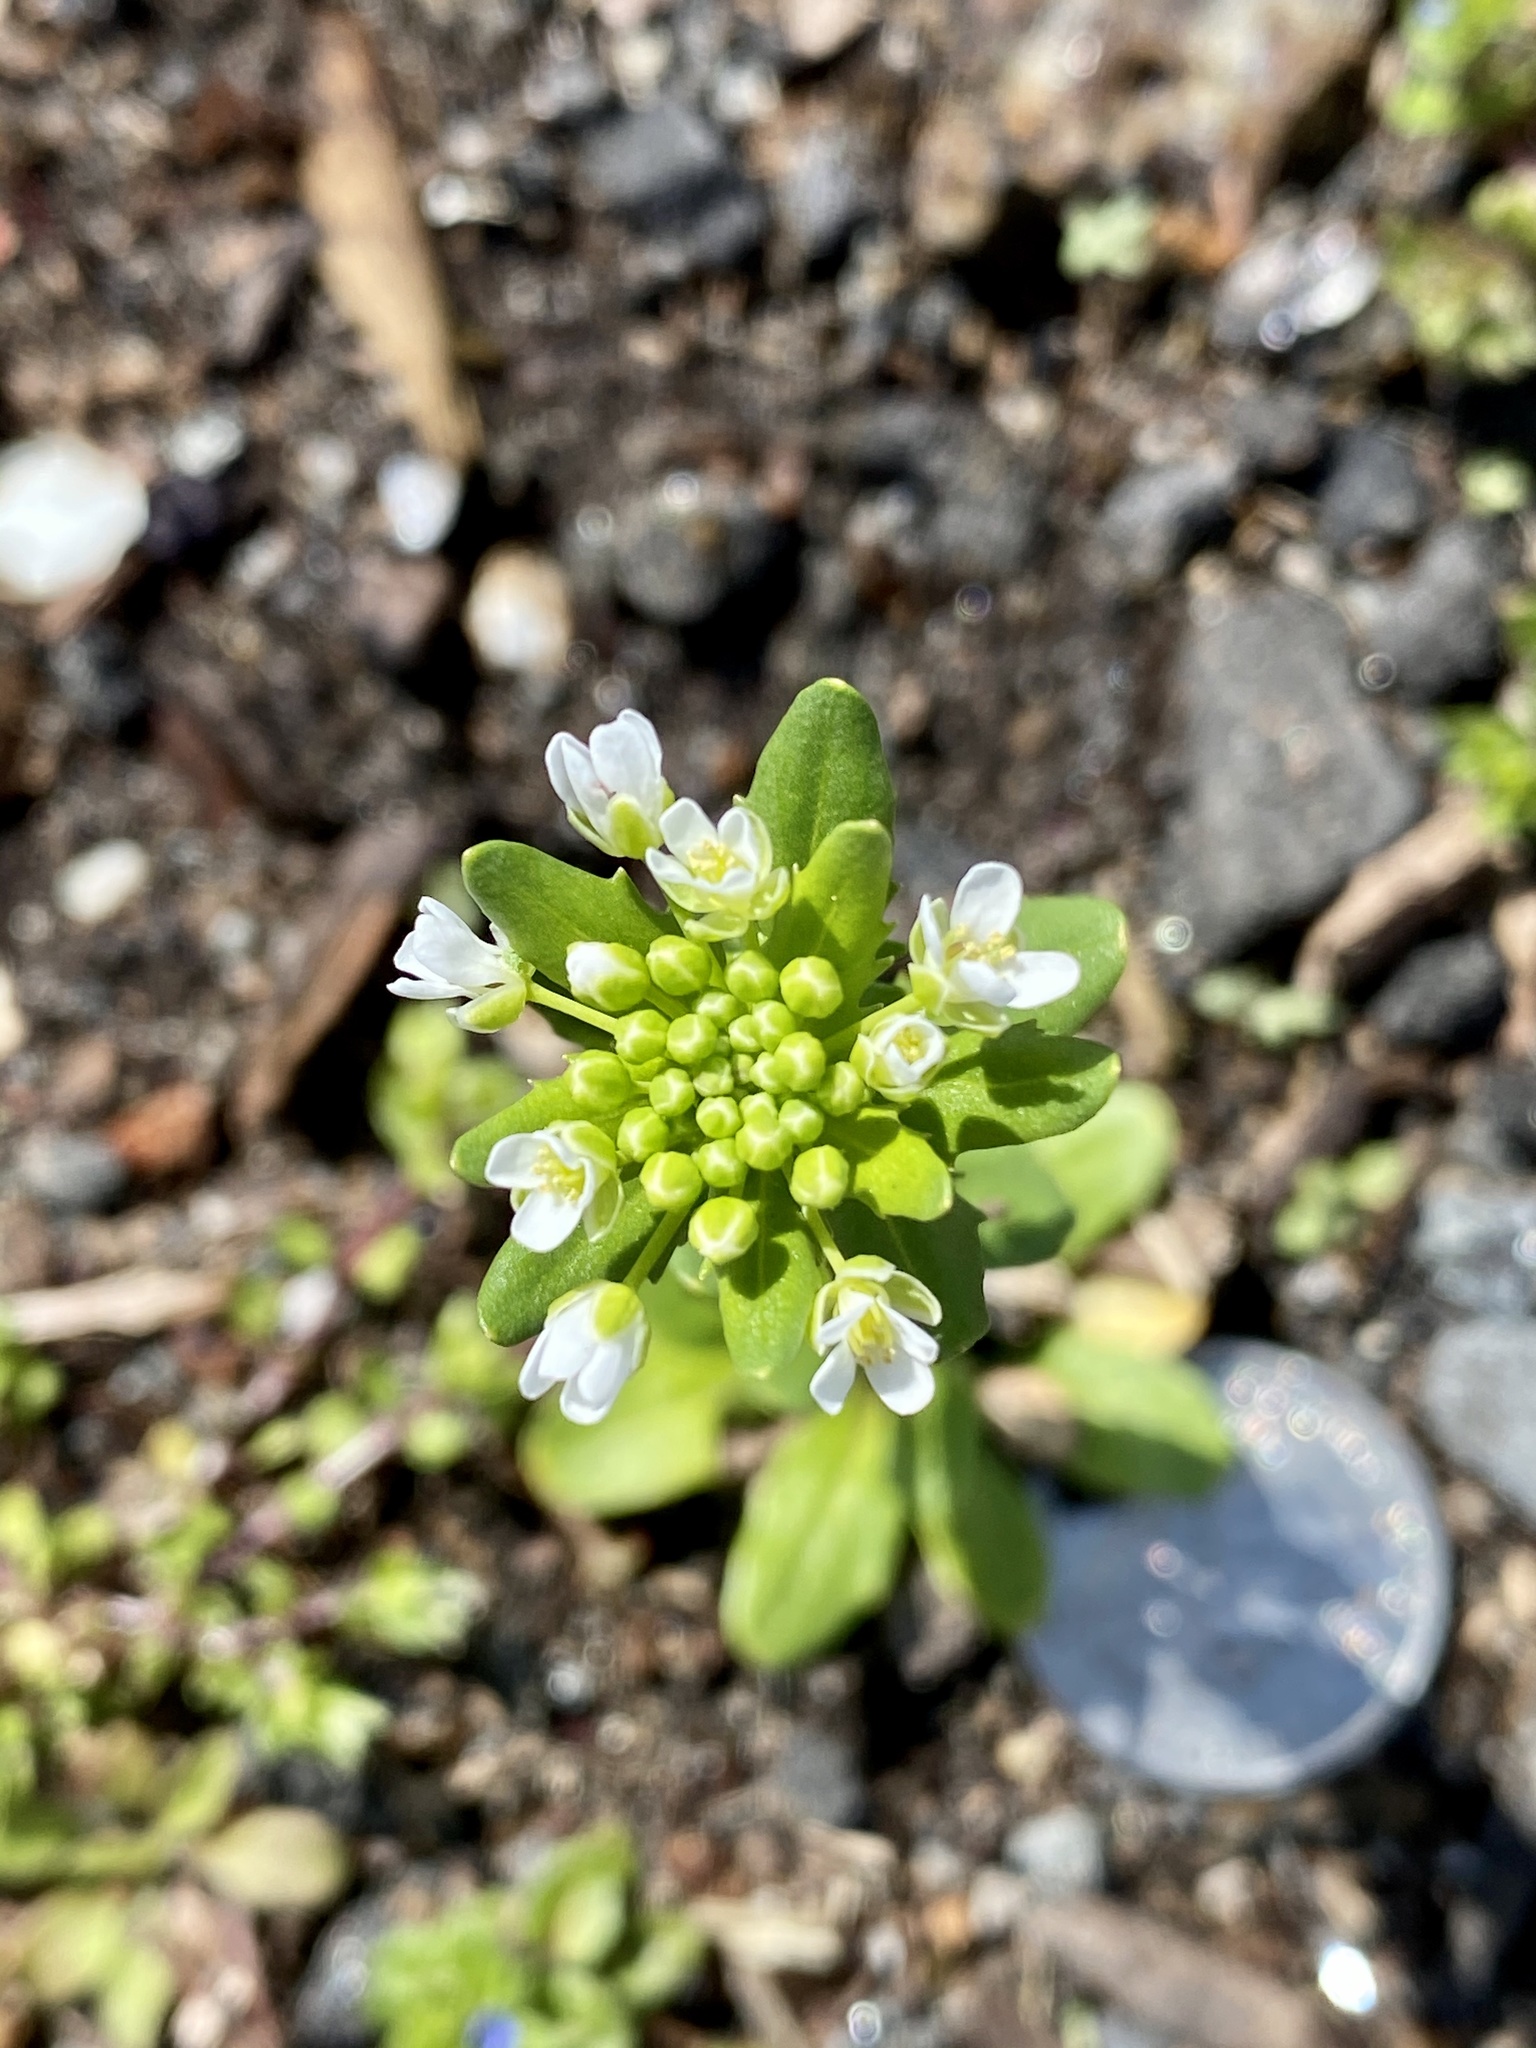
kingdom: Plantae
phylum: Tracheophyta
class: Magnoliopsida
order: Brassicales
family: Brassicaceae
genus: Thlaspi
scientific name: Thlaspi arvense
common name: Field pennycress
